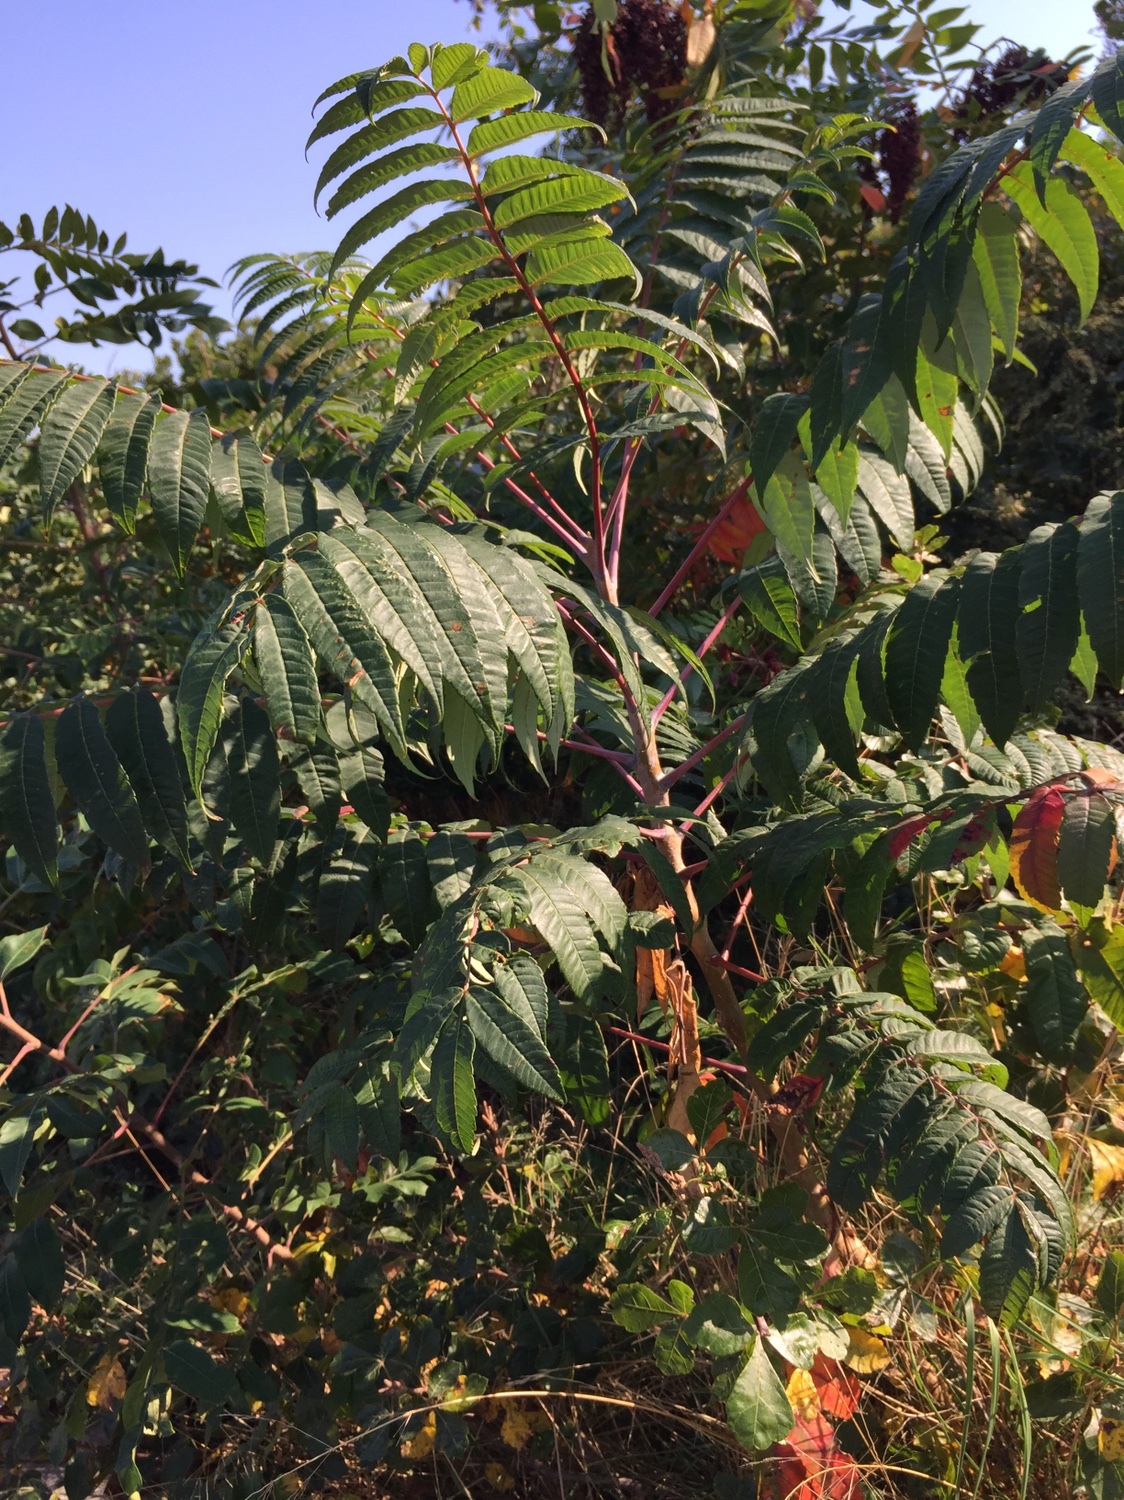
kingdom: Plantae
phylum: Tracheophyta
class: Magnoliopsida
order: Sapindales
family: Anacardiaceae
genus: Rhus
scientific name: Rhus glabra
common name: Scarlet sumac
